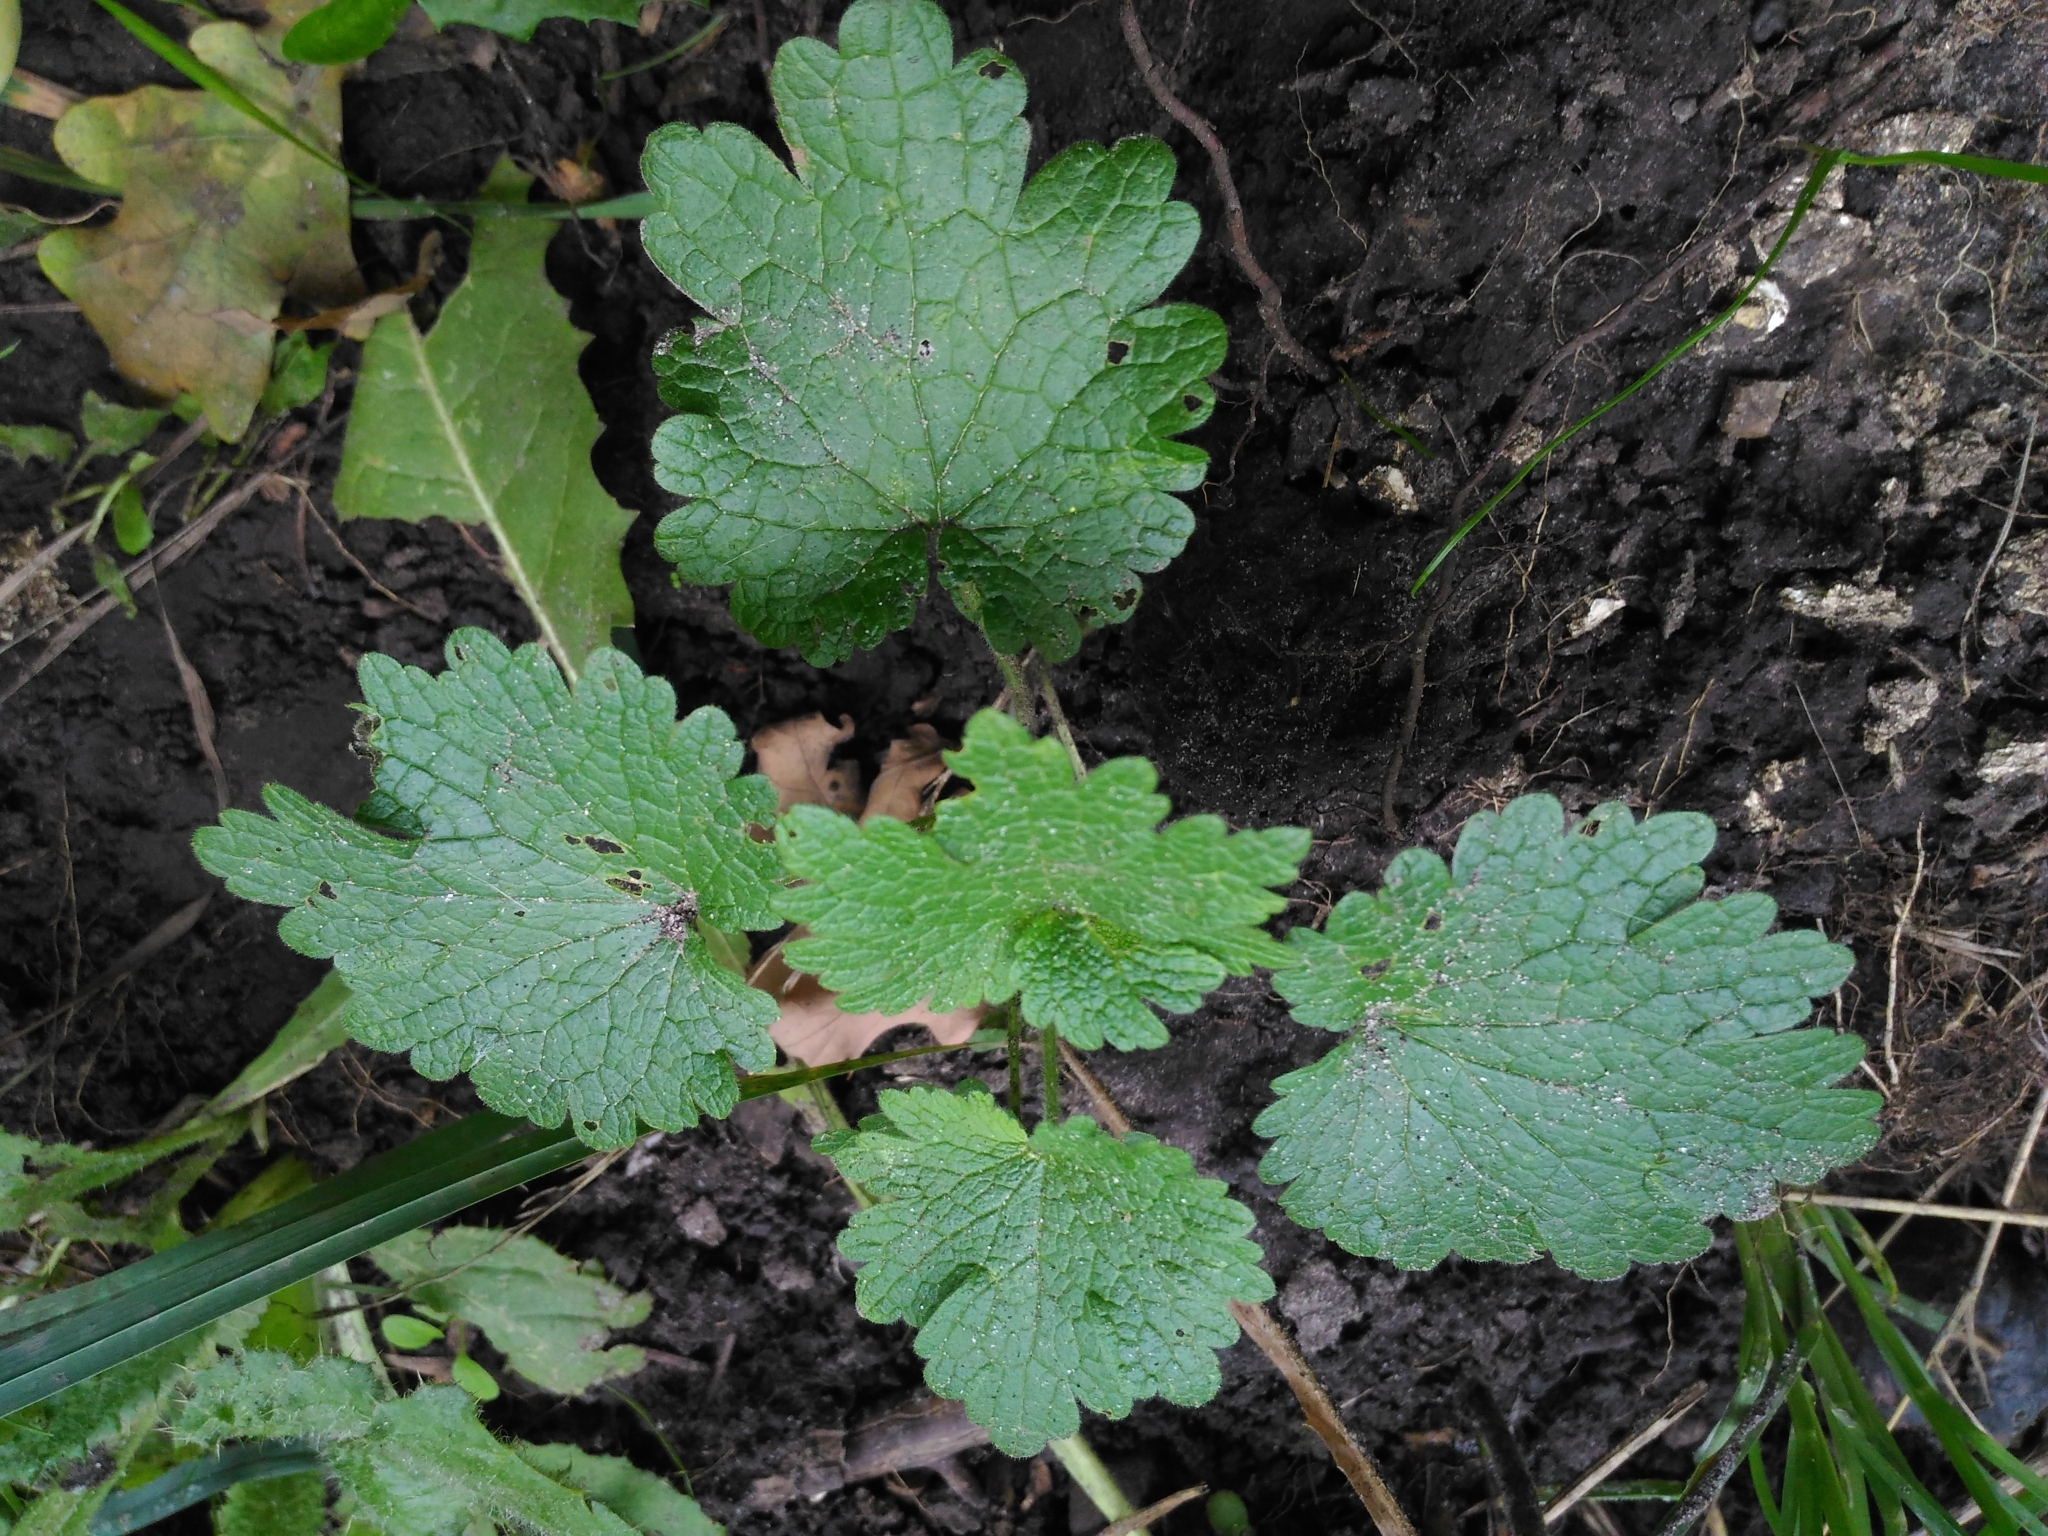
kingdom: Plantae
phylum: Tracheophyta
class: Magnoliopsida
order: Lamiales
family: Lamiaceae
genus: Leonurus
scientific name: Leonurus quinquelobatus
